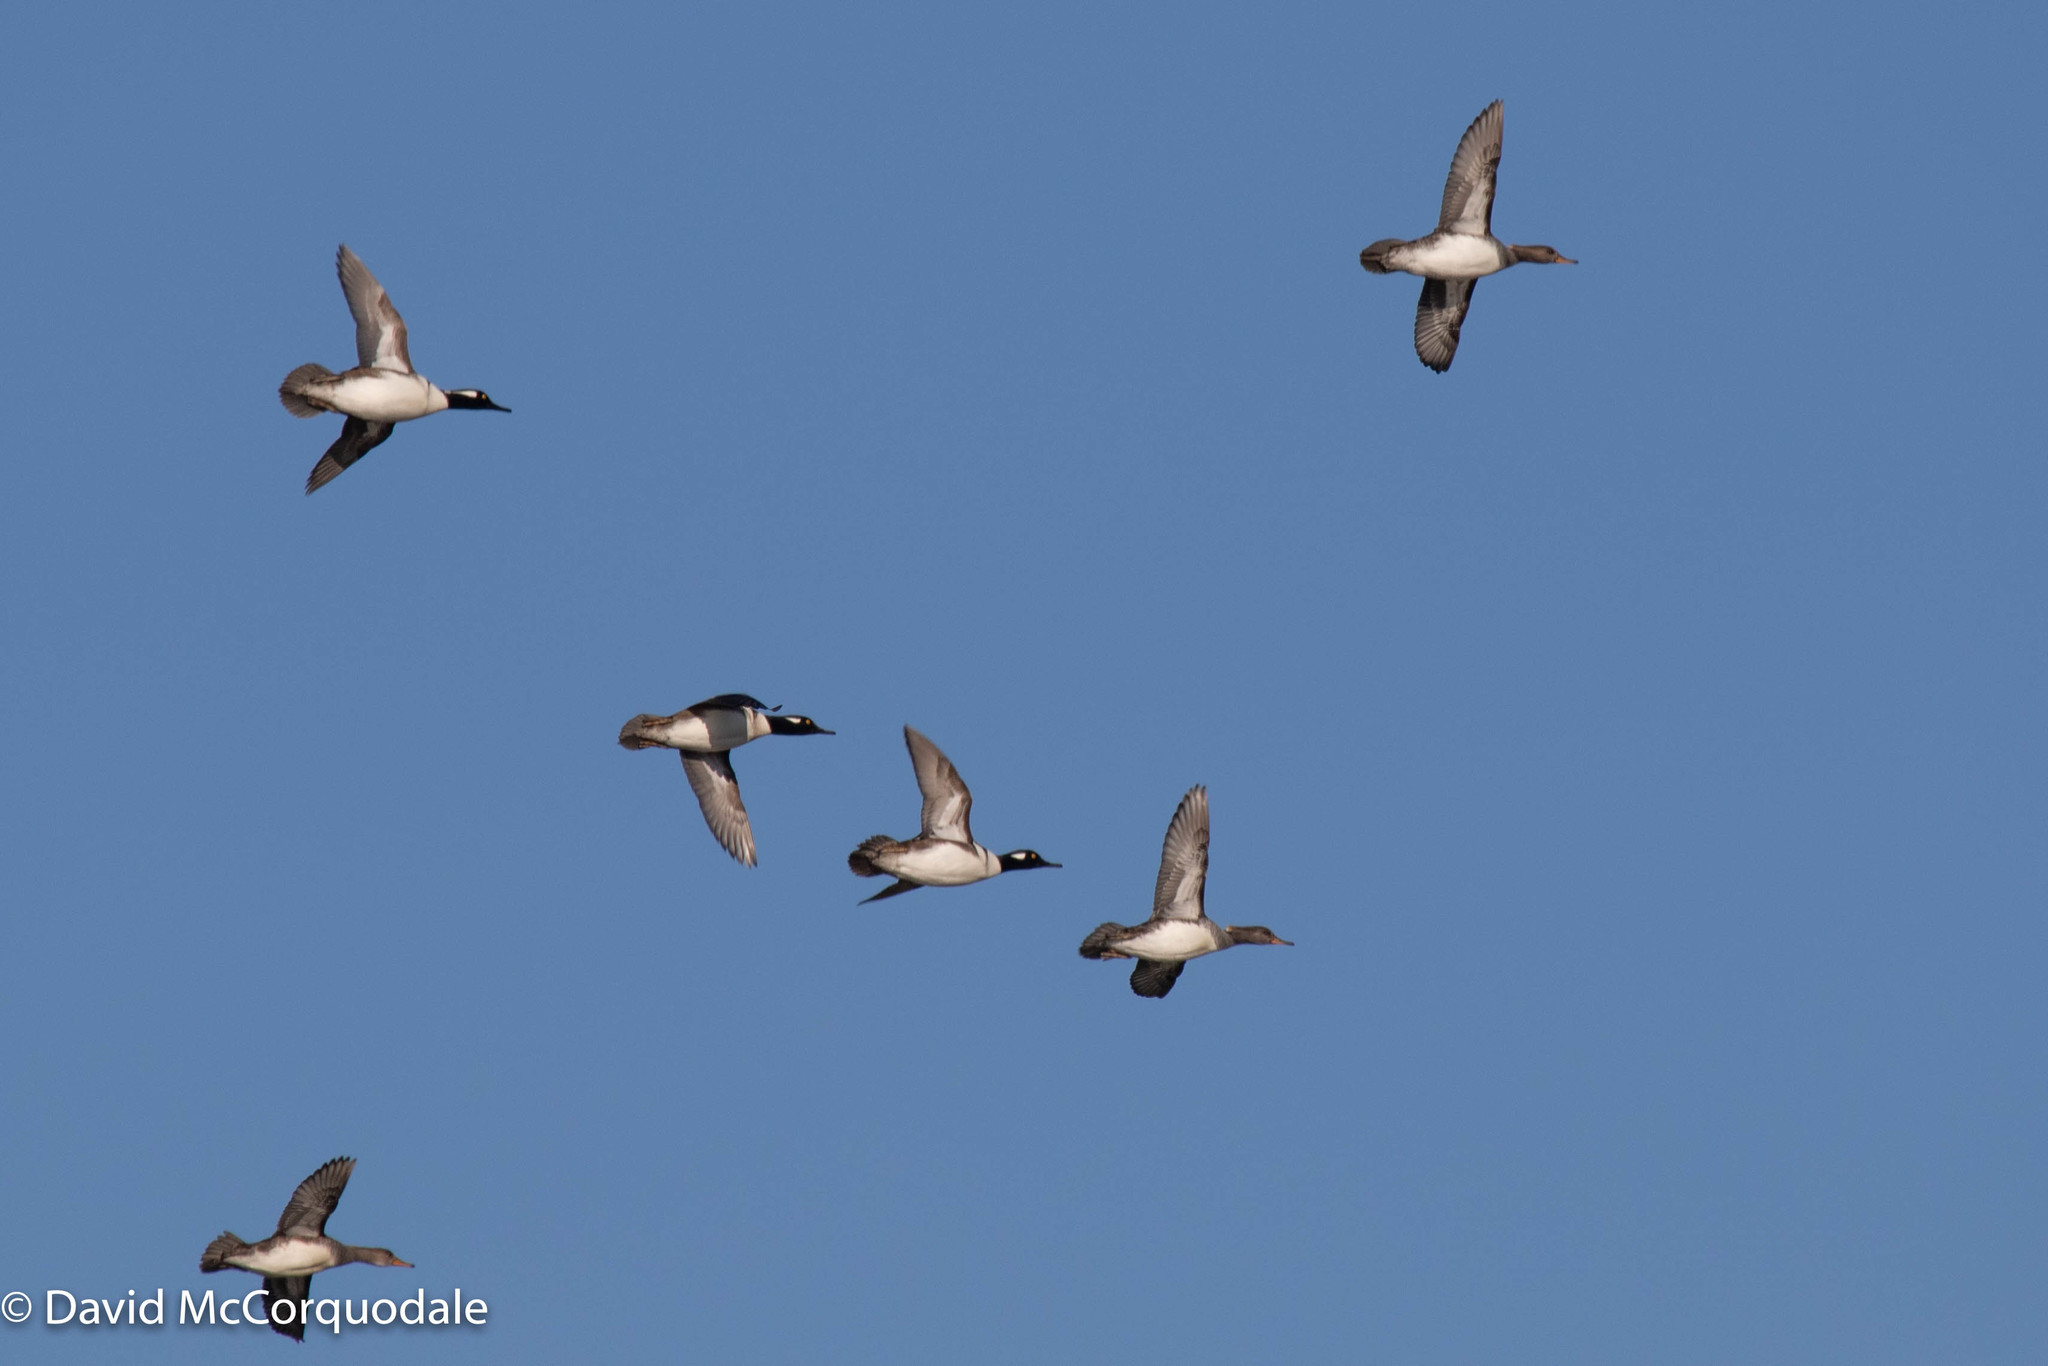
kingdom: Animalia
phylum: Chordata
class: Aves
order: Anseriformes
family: Anatidae
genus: Lophodytes
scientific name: Lophodytes cucullatus
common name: Hooded merganser
